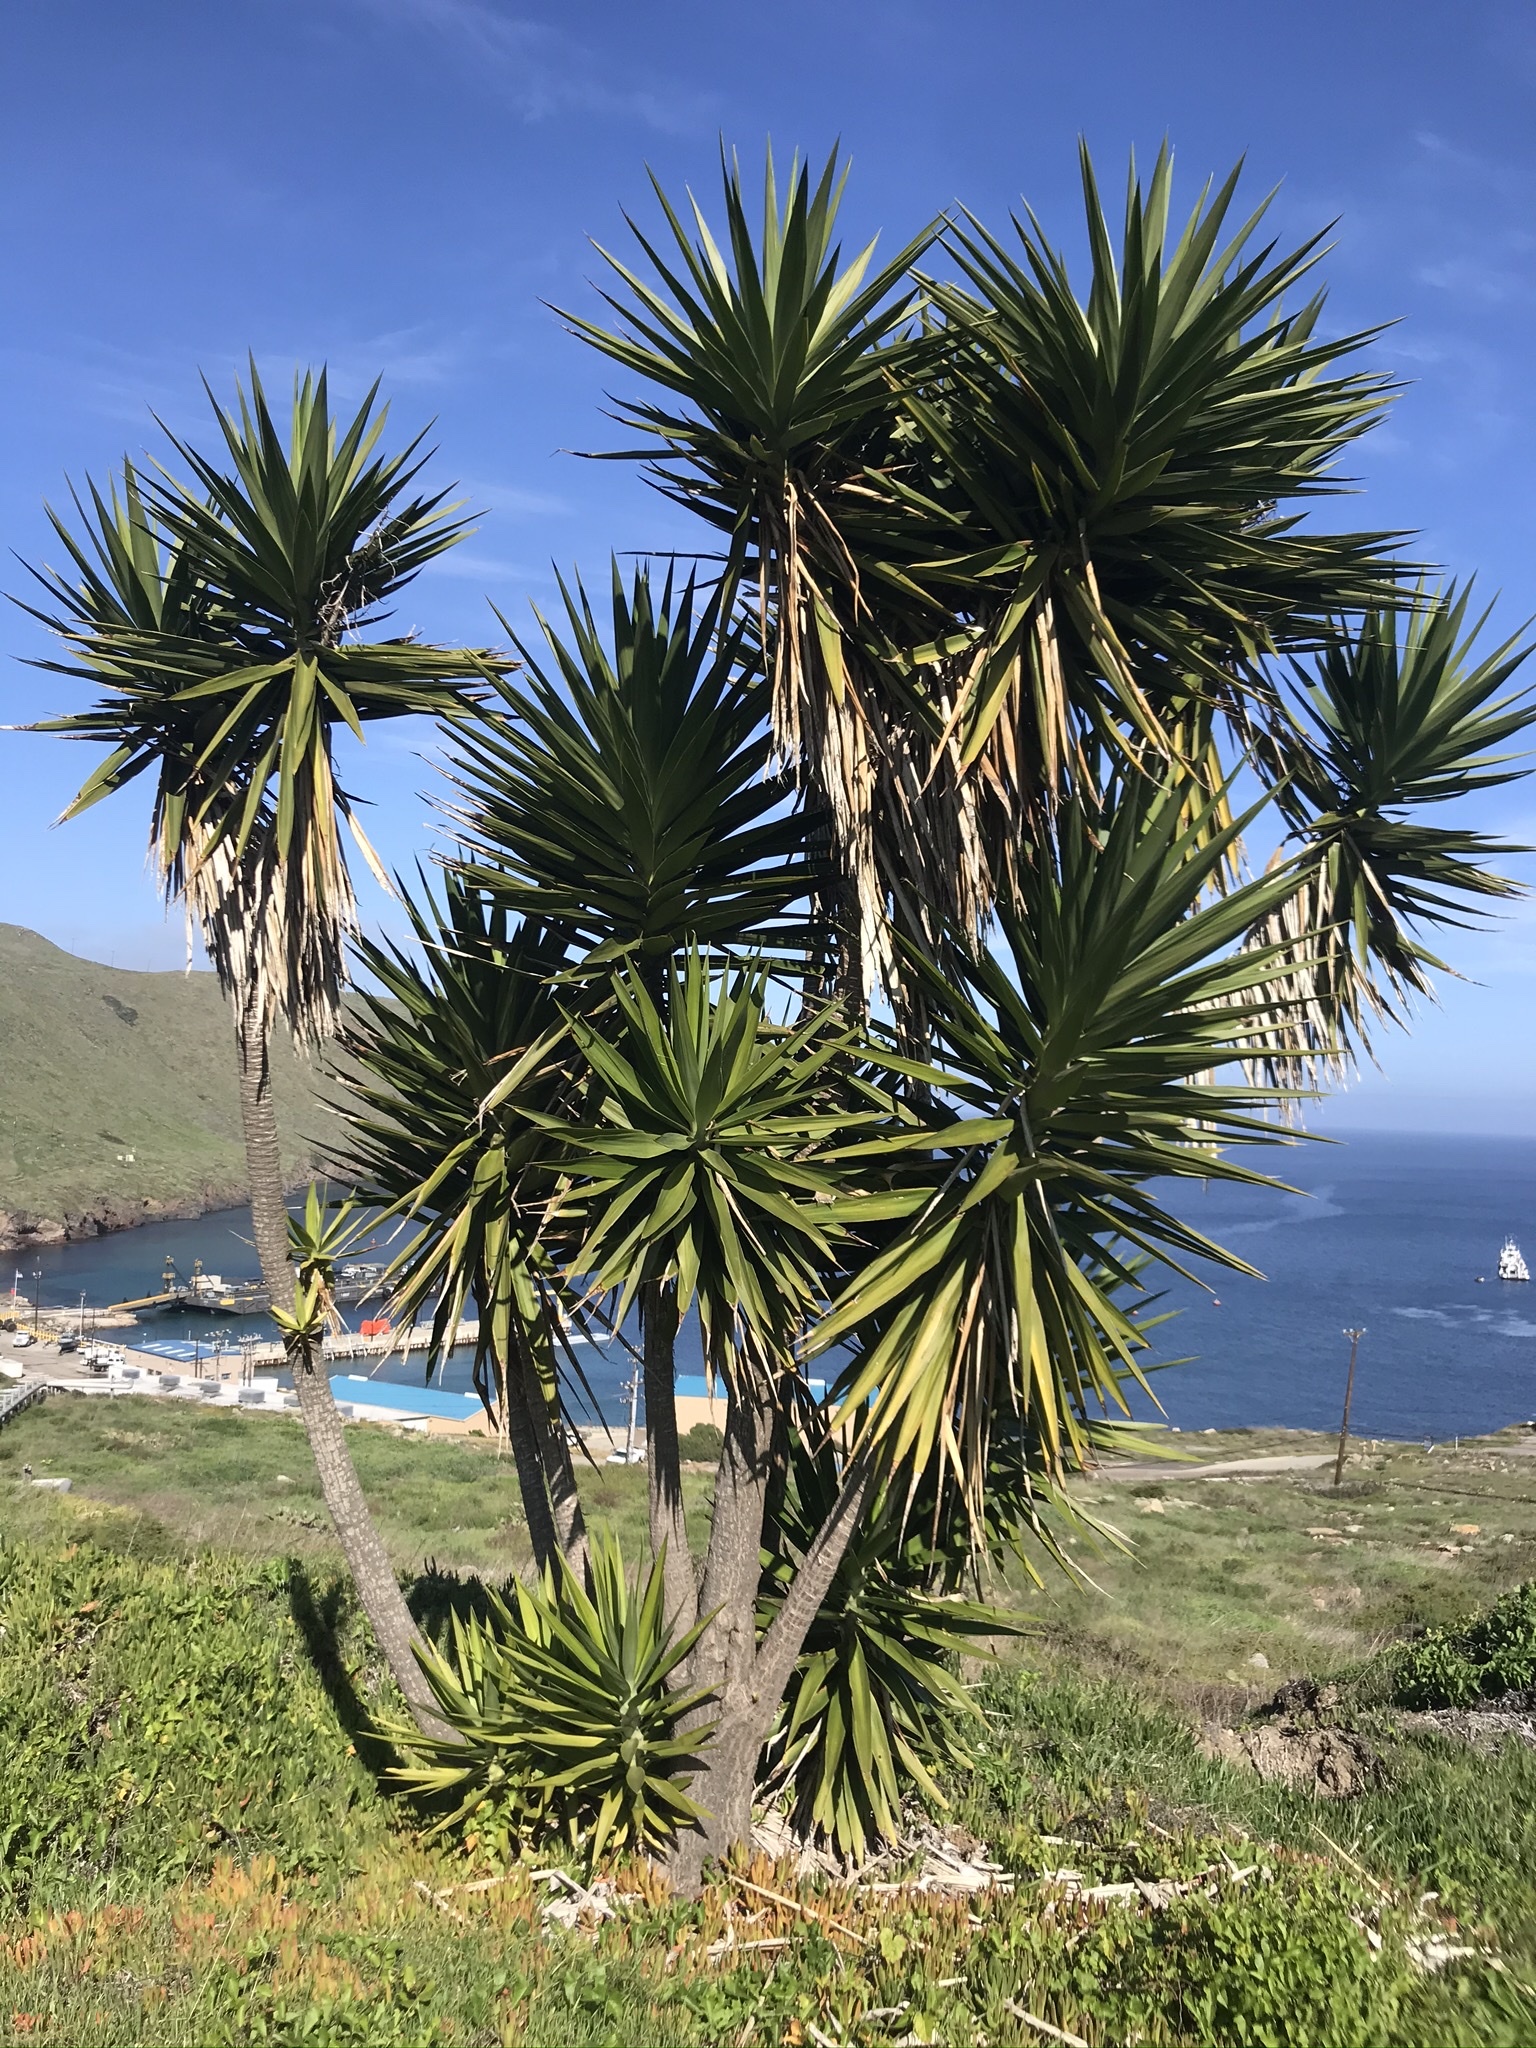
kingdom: Plantae
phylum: Tracheophyta
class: Liliopsida
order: Asparagales
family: Asparagaceae
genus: Yucca
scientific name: Yucca gigantea
